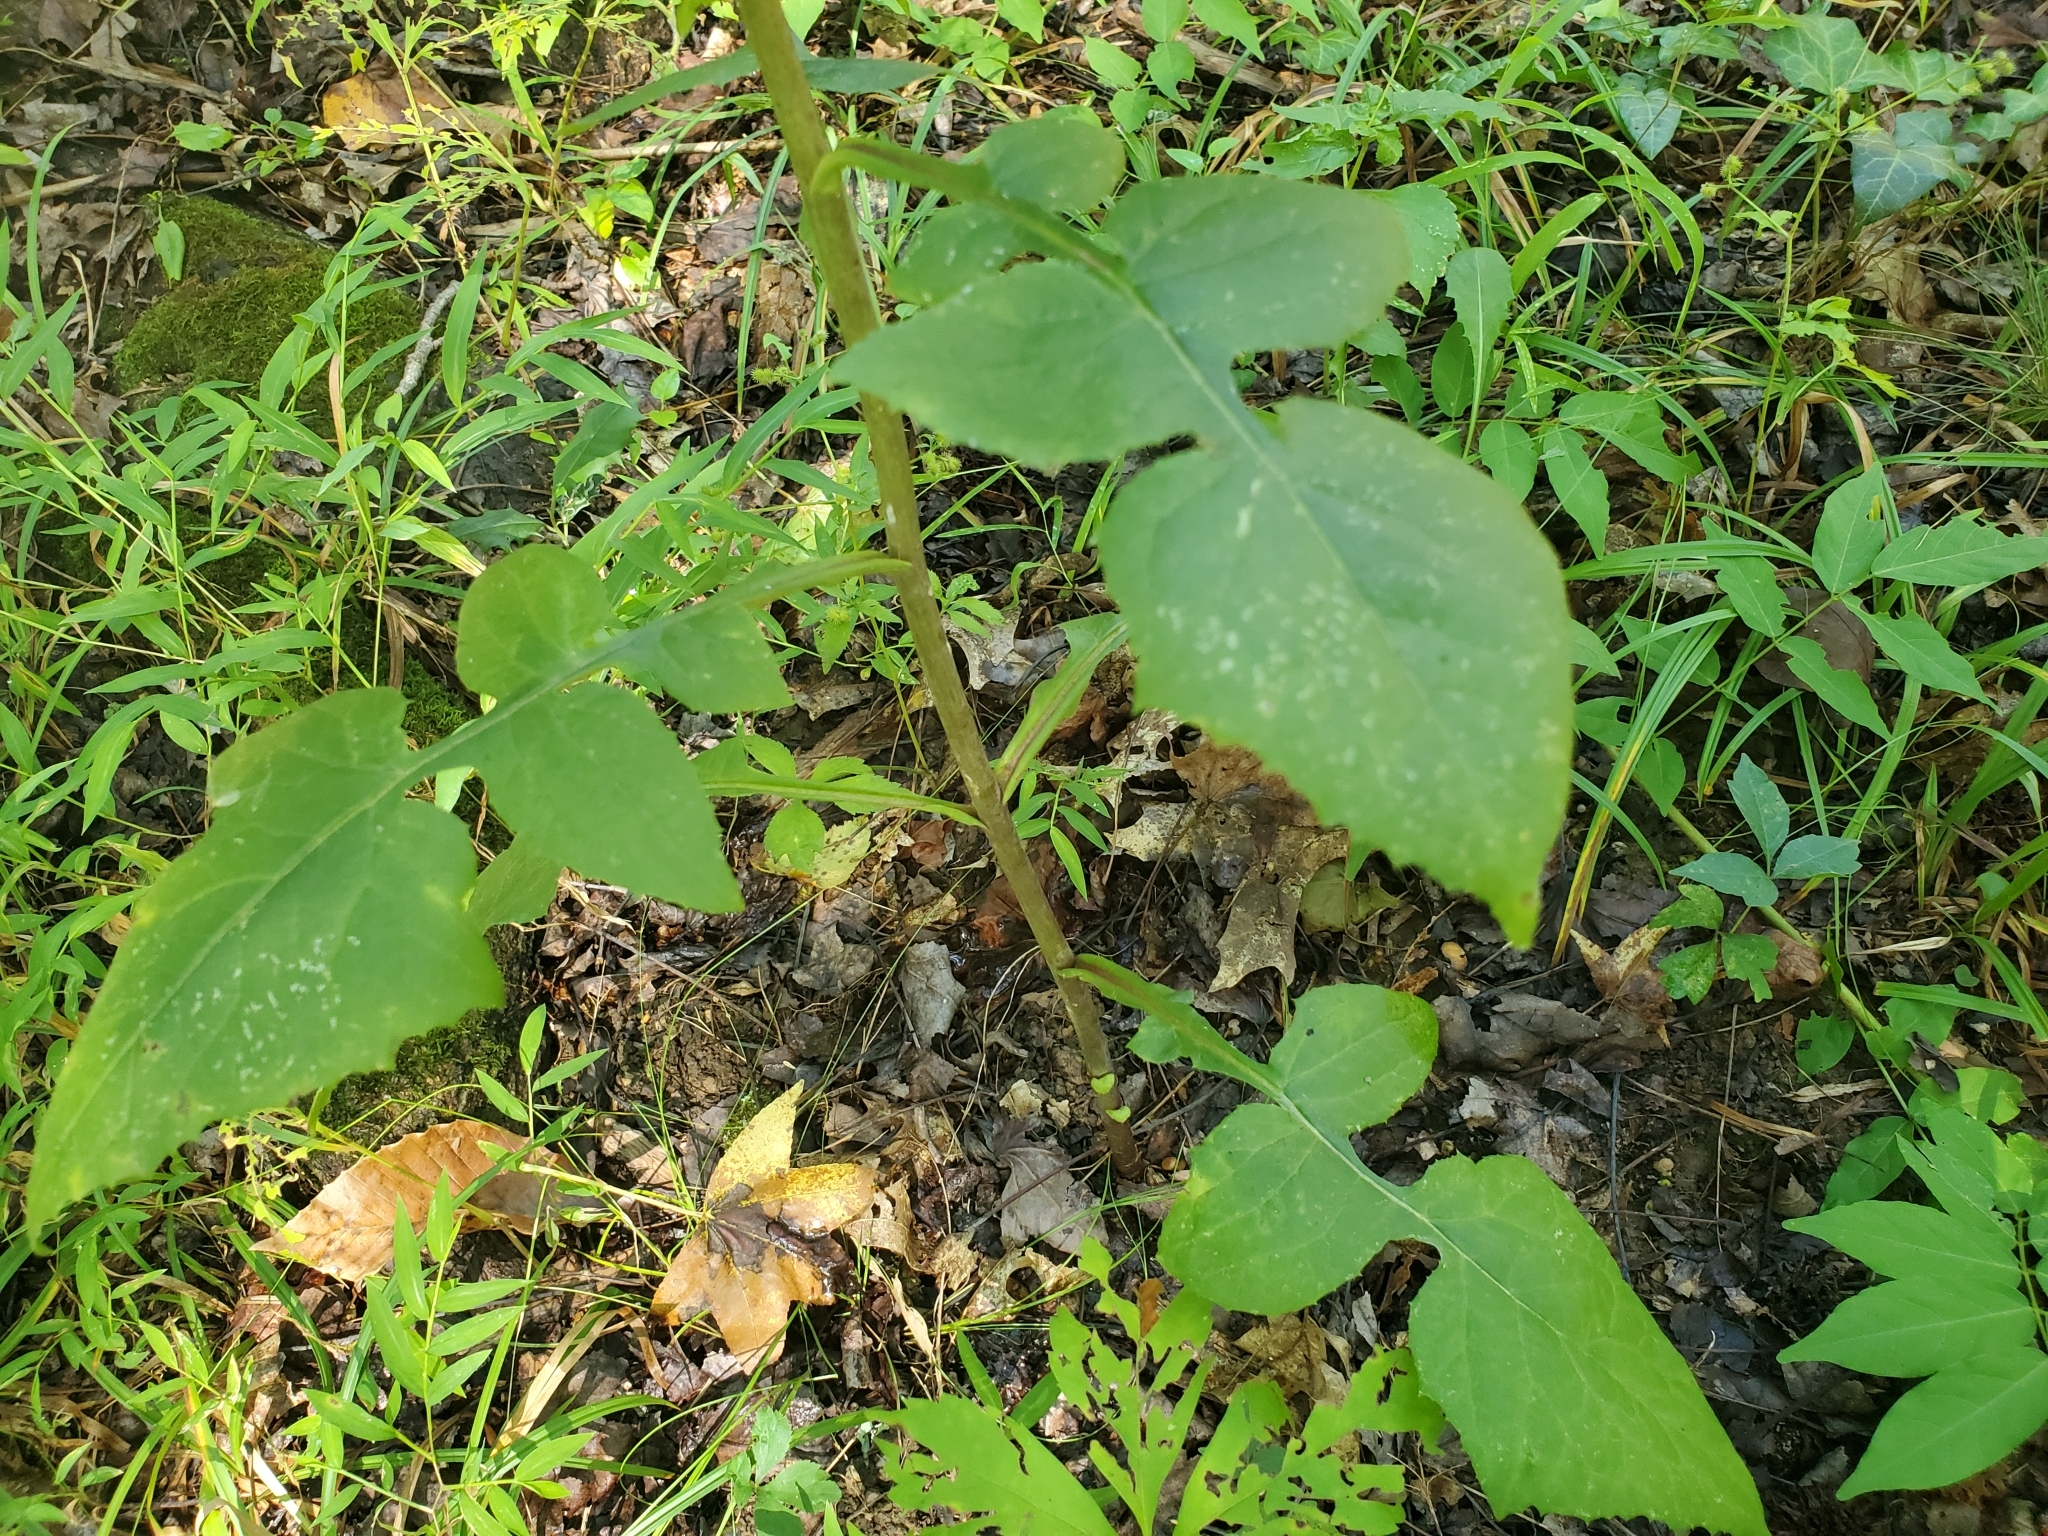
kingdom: Plantae
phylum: Tracheophyta
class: Magnoliopsida
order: Asterales
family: Asteraceae
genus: Lactuca
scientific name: Lactuca floridana
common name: Woodland lettuce
